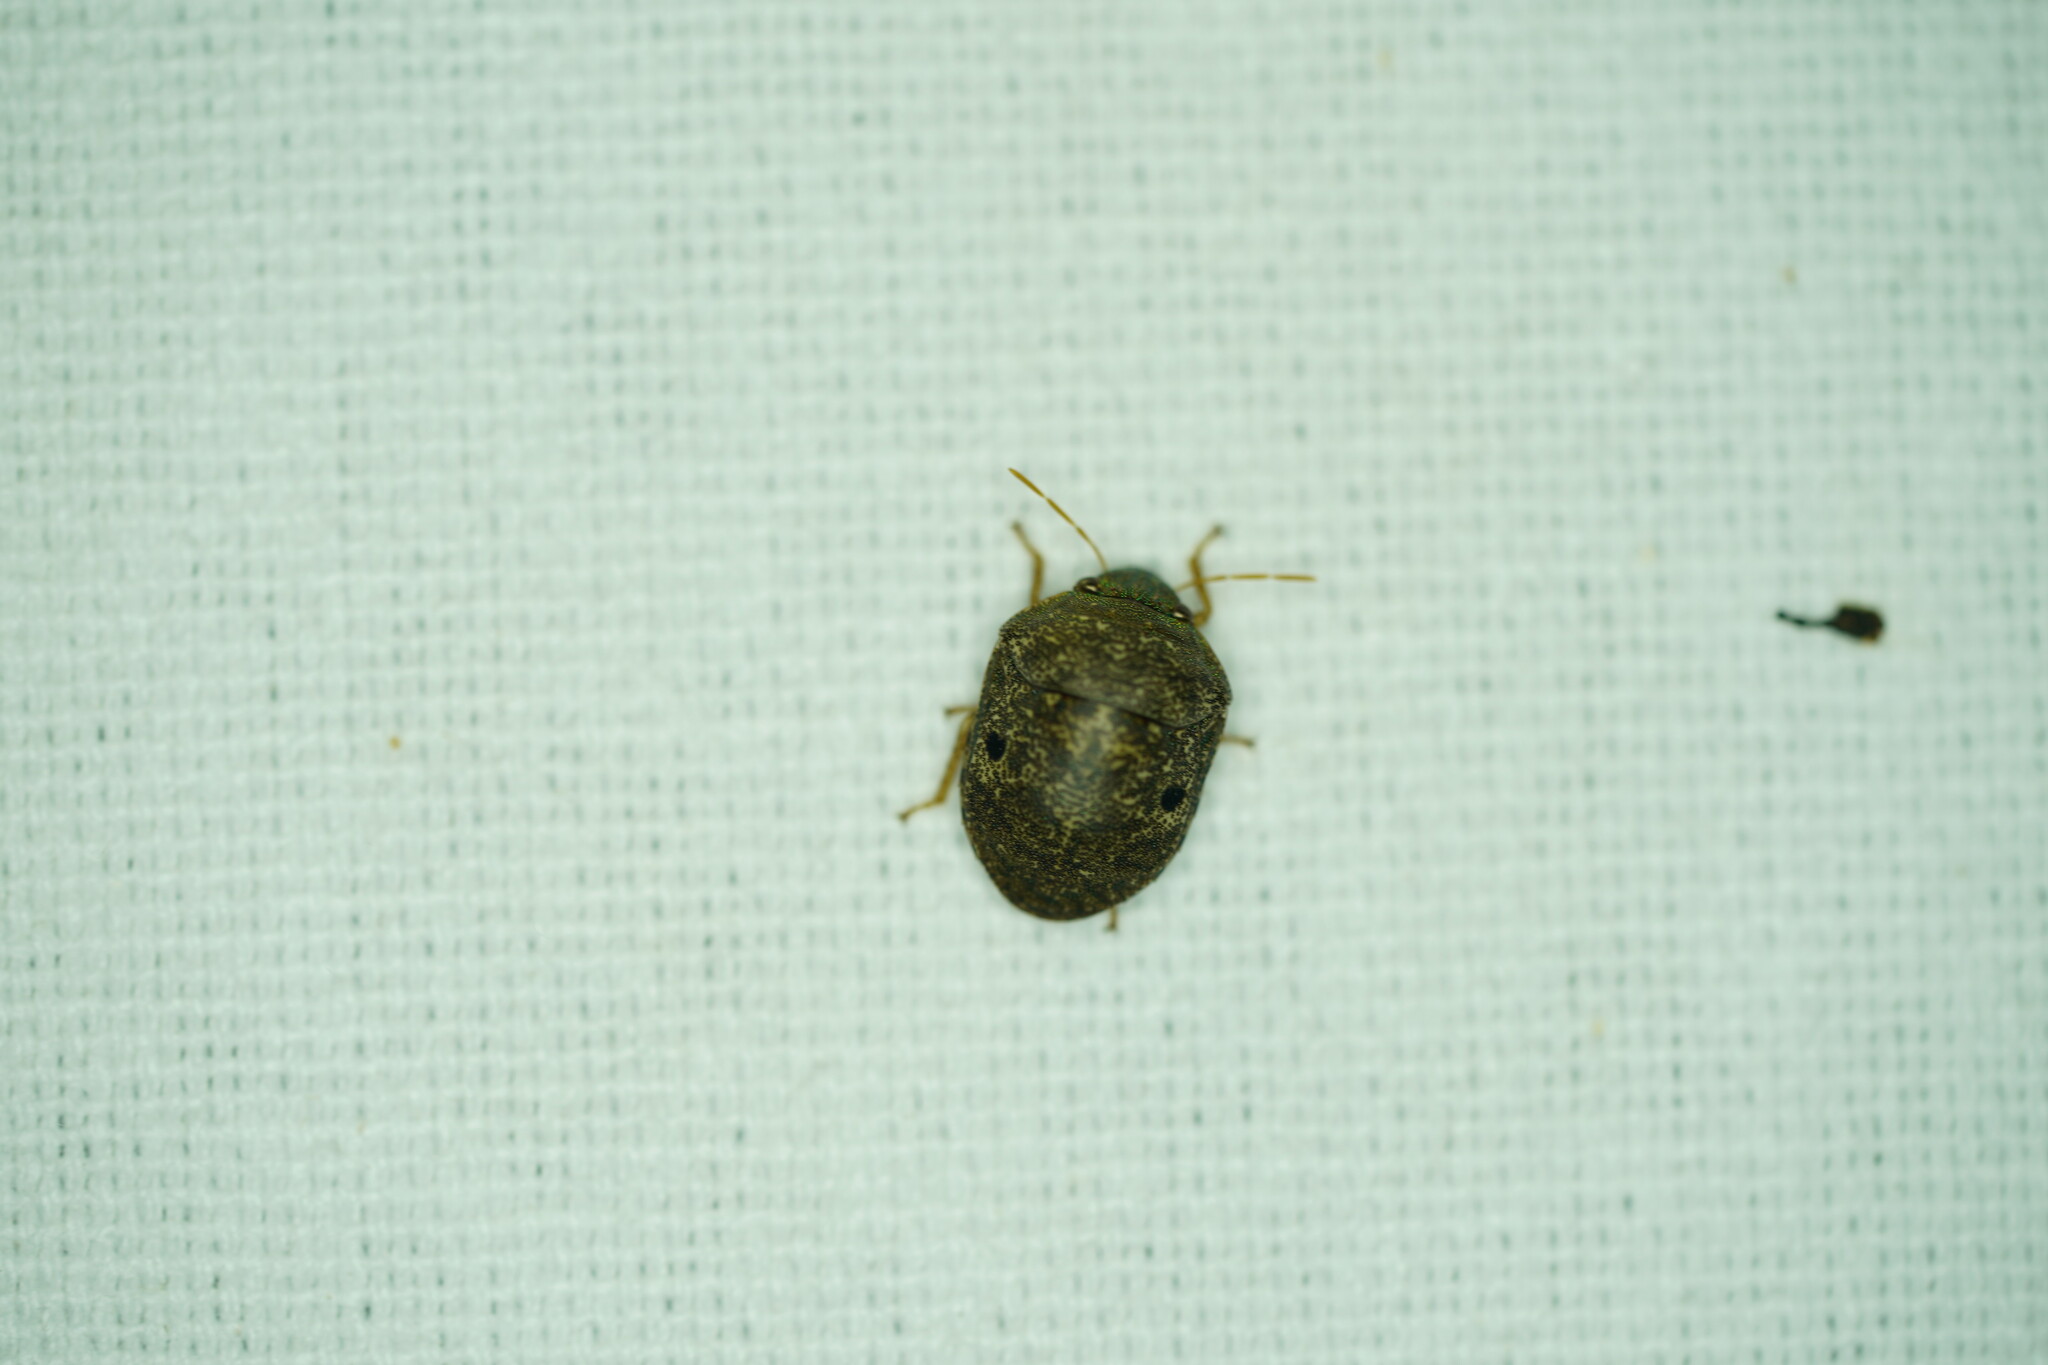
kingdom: Animalia
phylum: Arthropoda
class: Insecta
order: Hemiptera
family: Scutelleridae
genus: Diolcus
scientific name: Diolcus chrysorrhoeus
